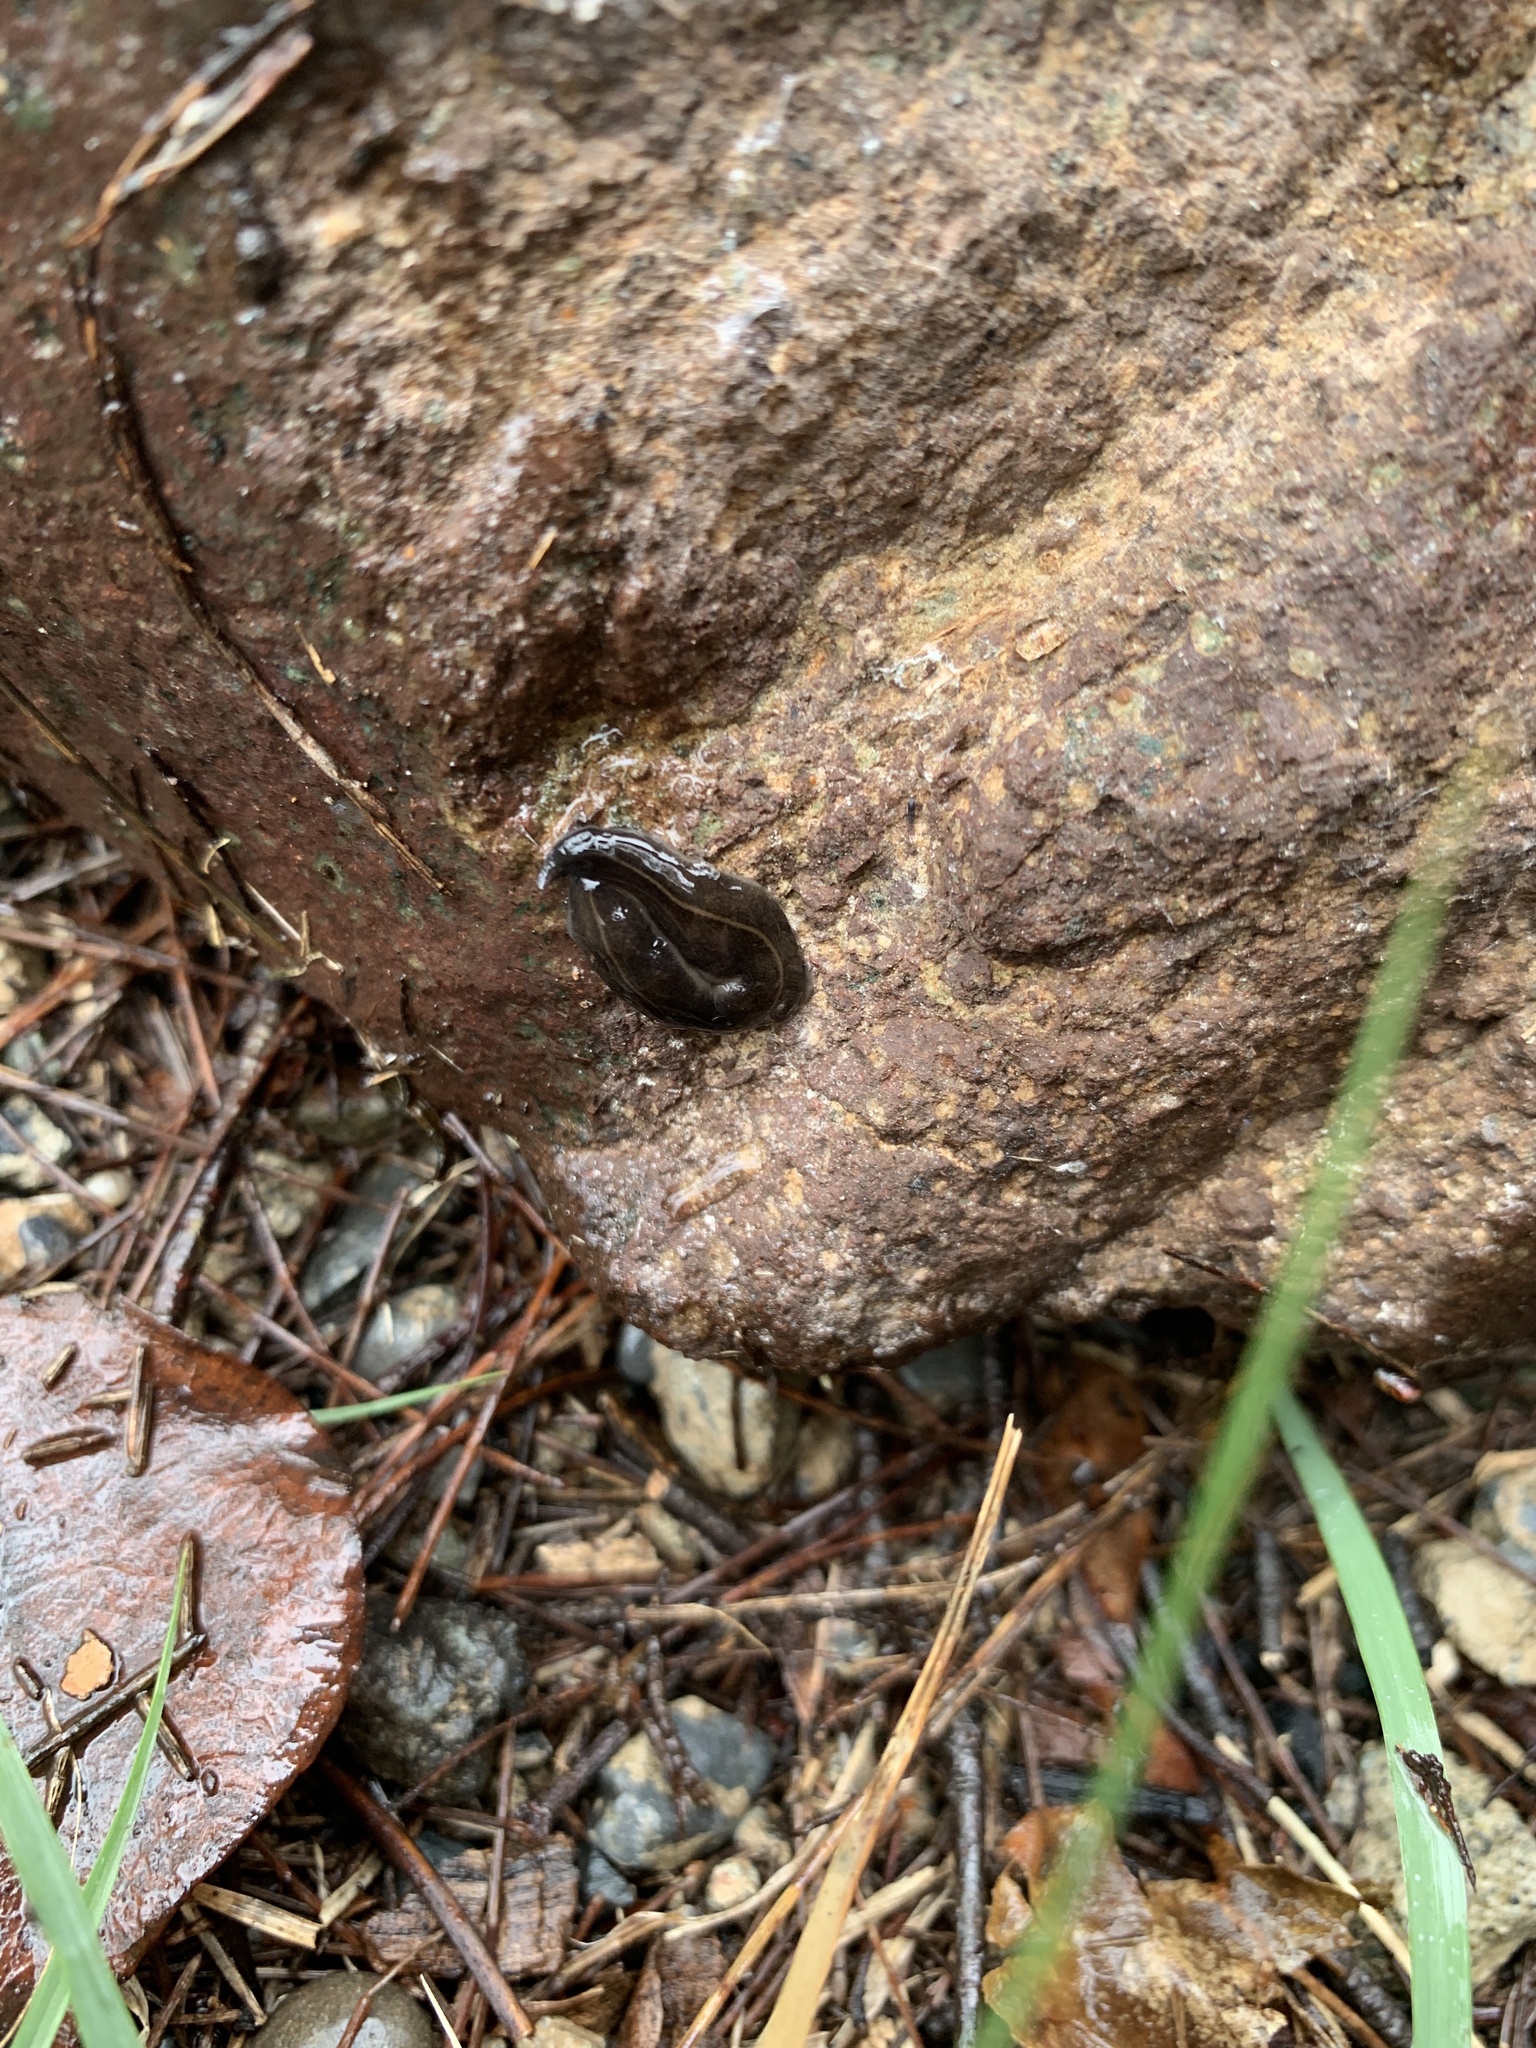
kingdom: Animalia
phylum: Platyhelminthes
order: Tricladida
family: Geoplanidae
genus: Platydemus
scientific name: Platydemus manokwari
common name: New guinea flatworm
